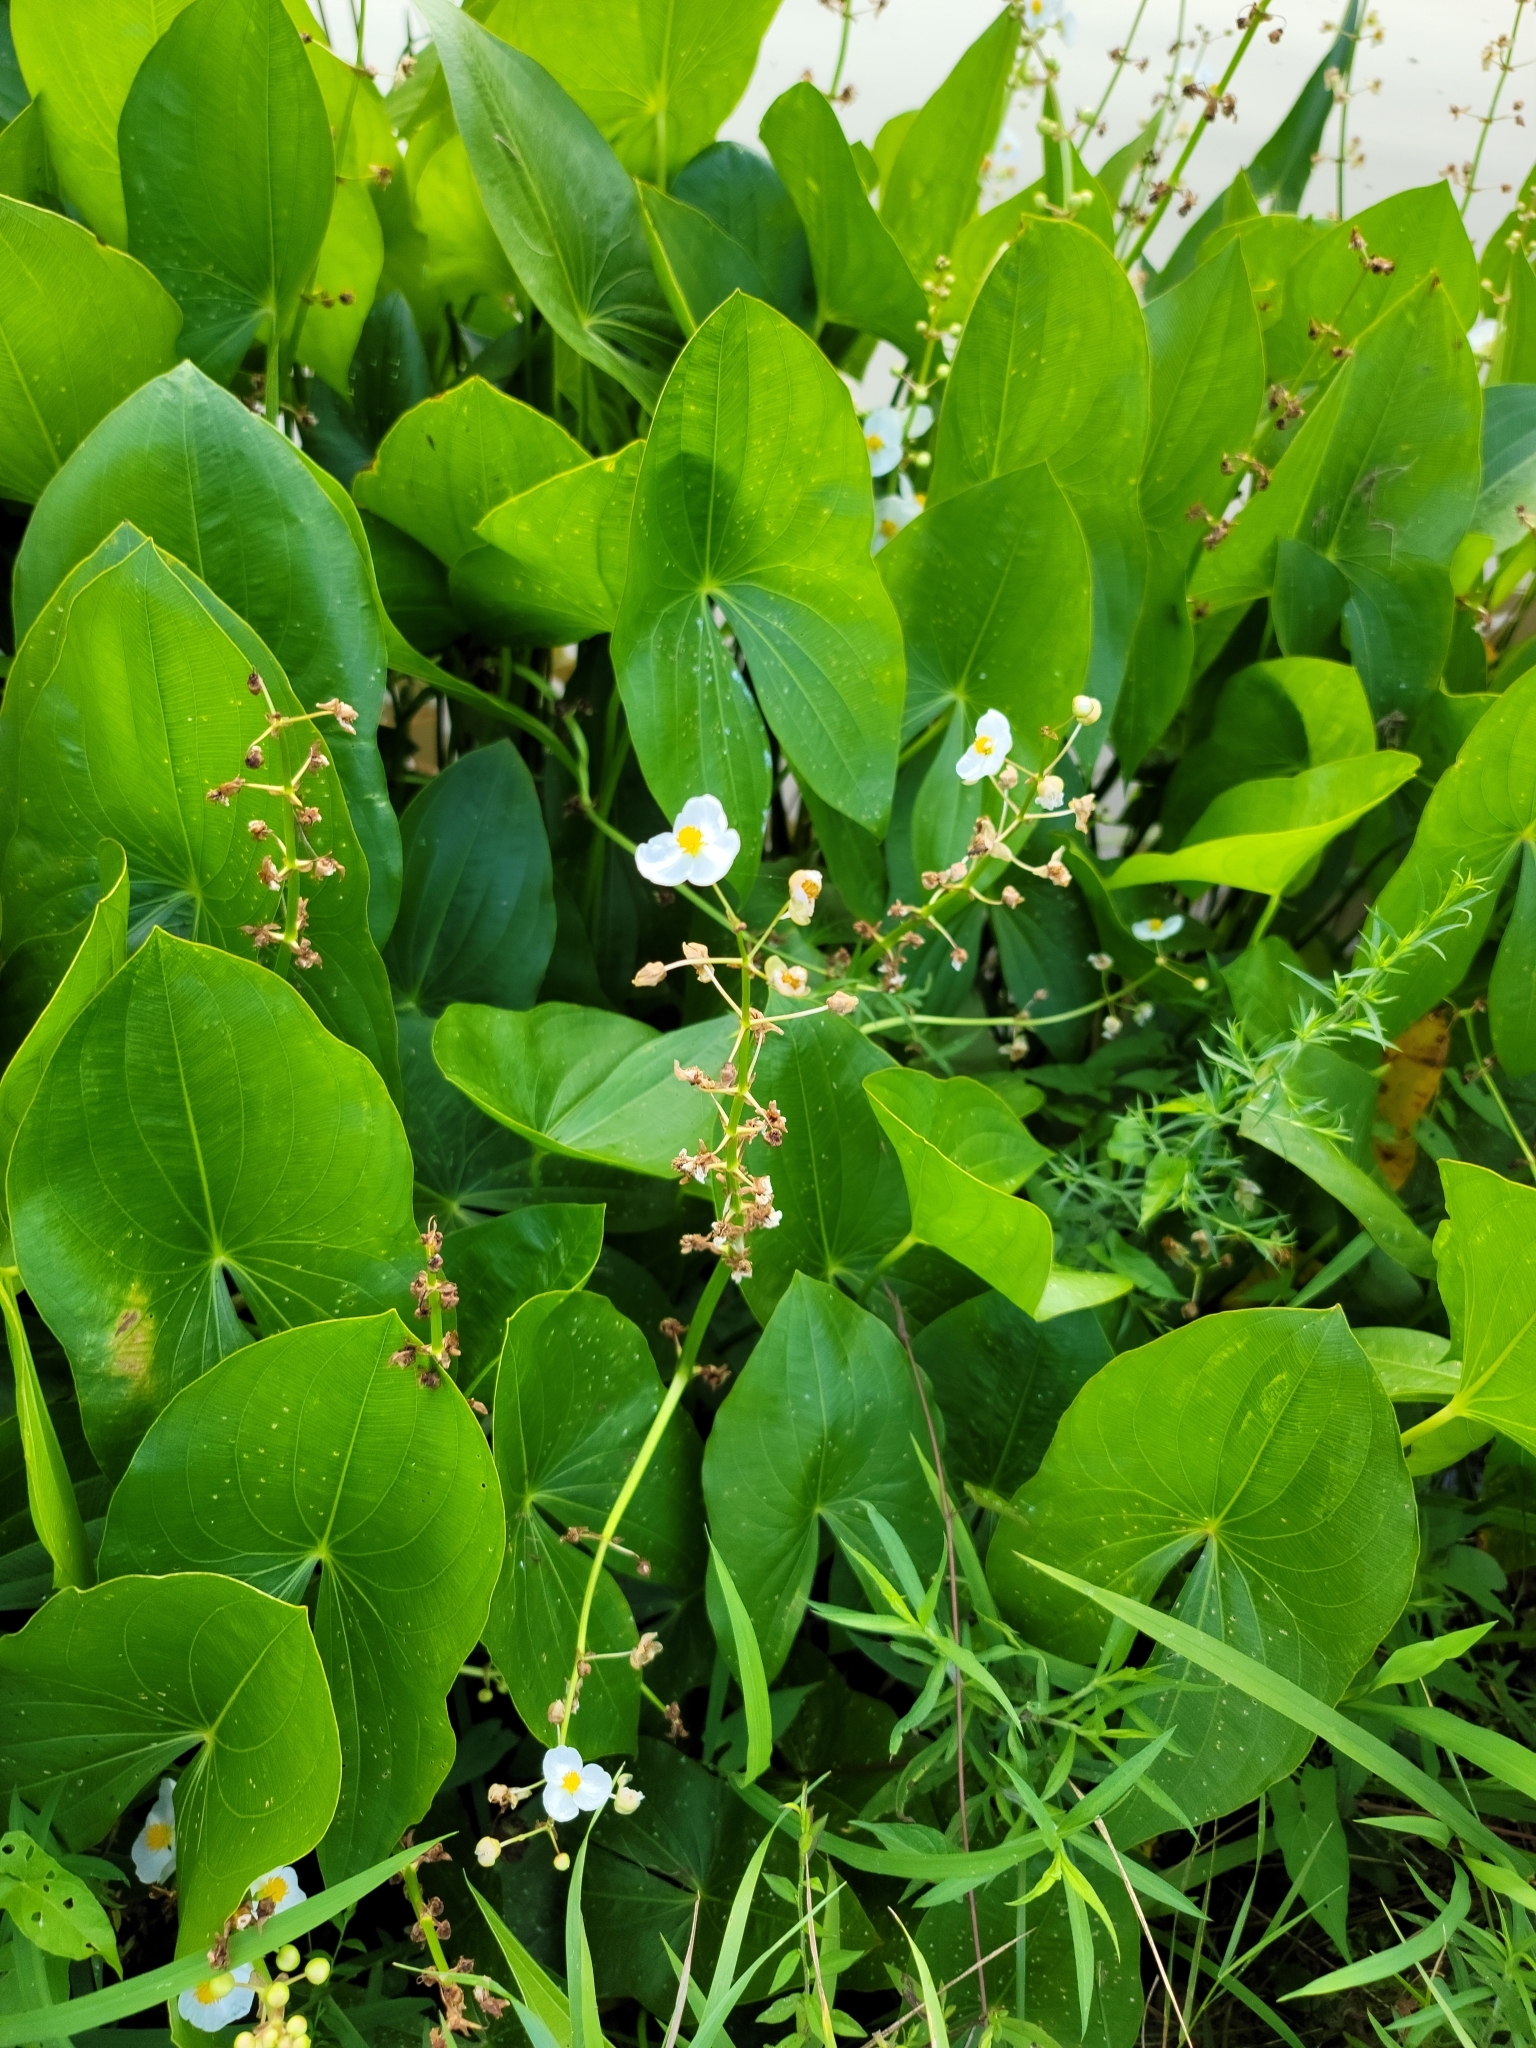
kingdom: Plantae
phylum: Tracheophyta
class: Liliopsida
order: Alismatales
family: Alismataceae
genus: Sagittaria
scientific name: Sagittaria latifolia
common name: Duck-potato
